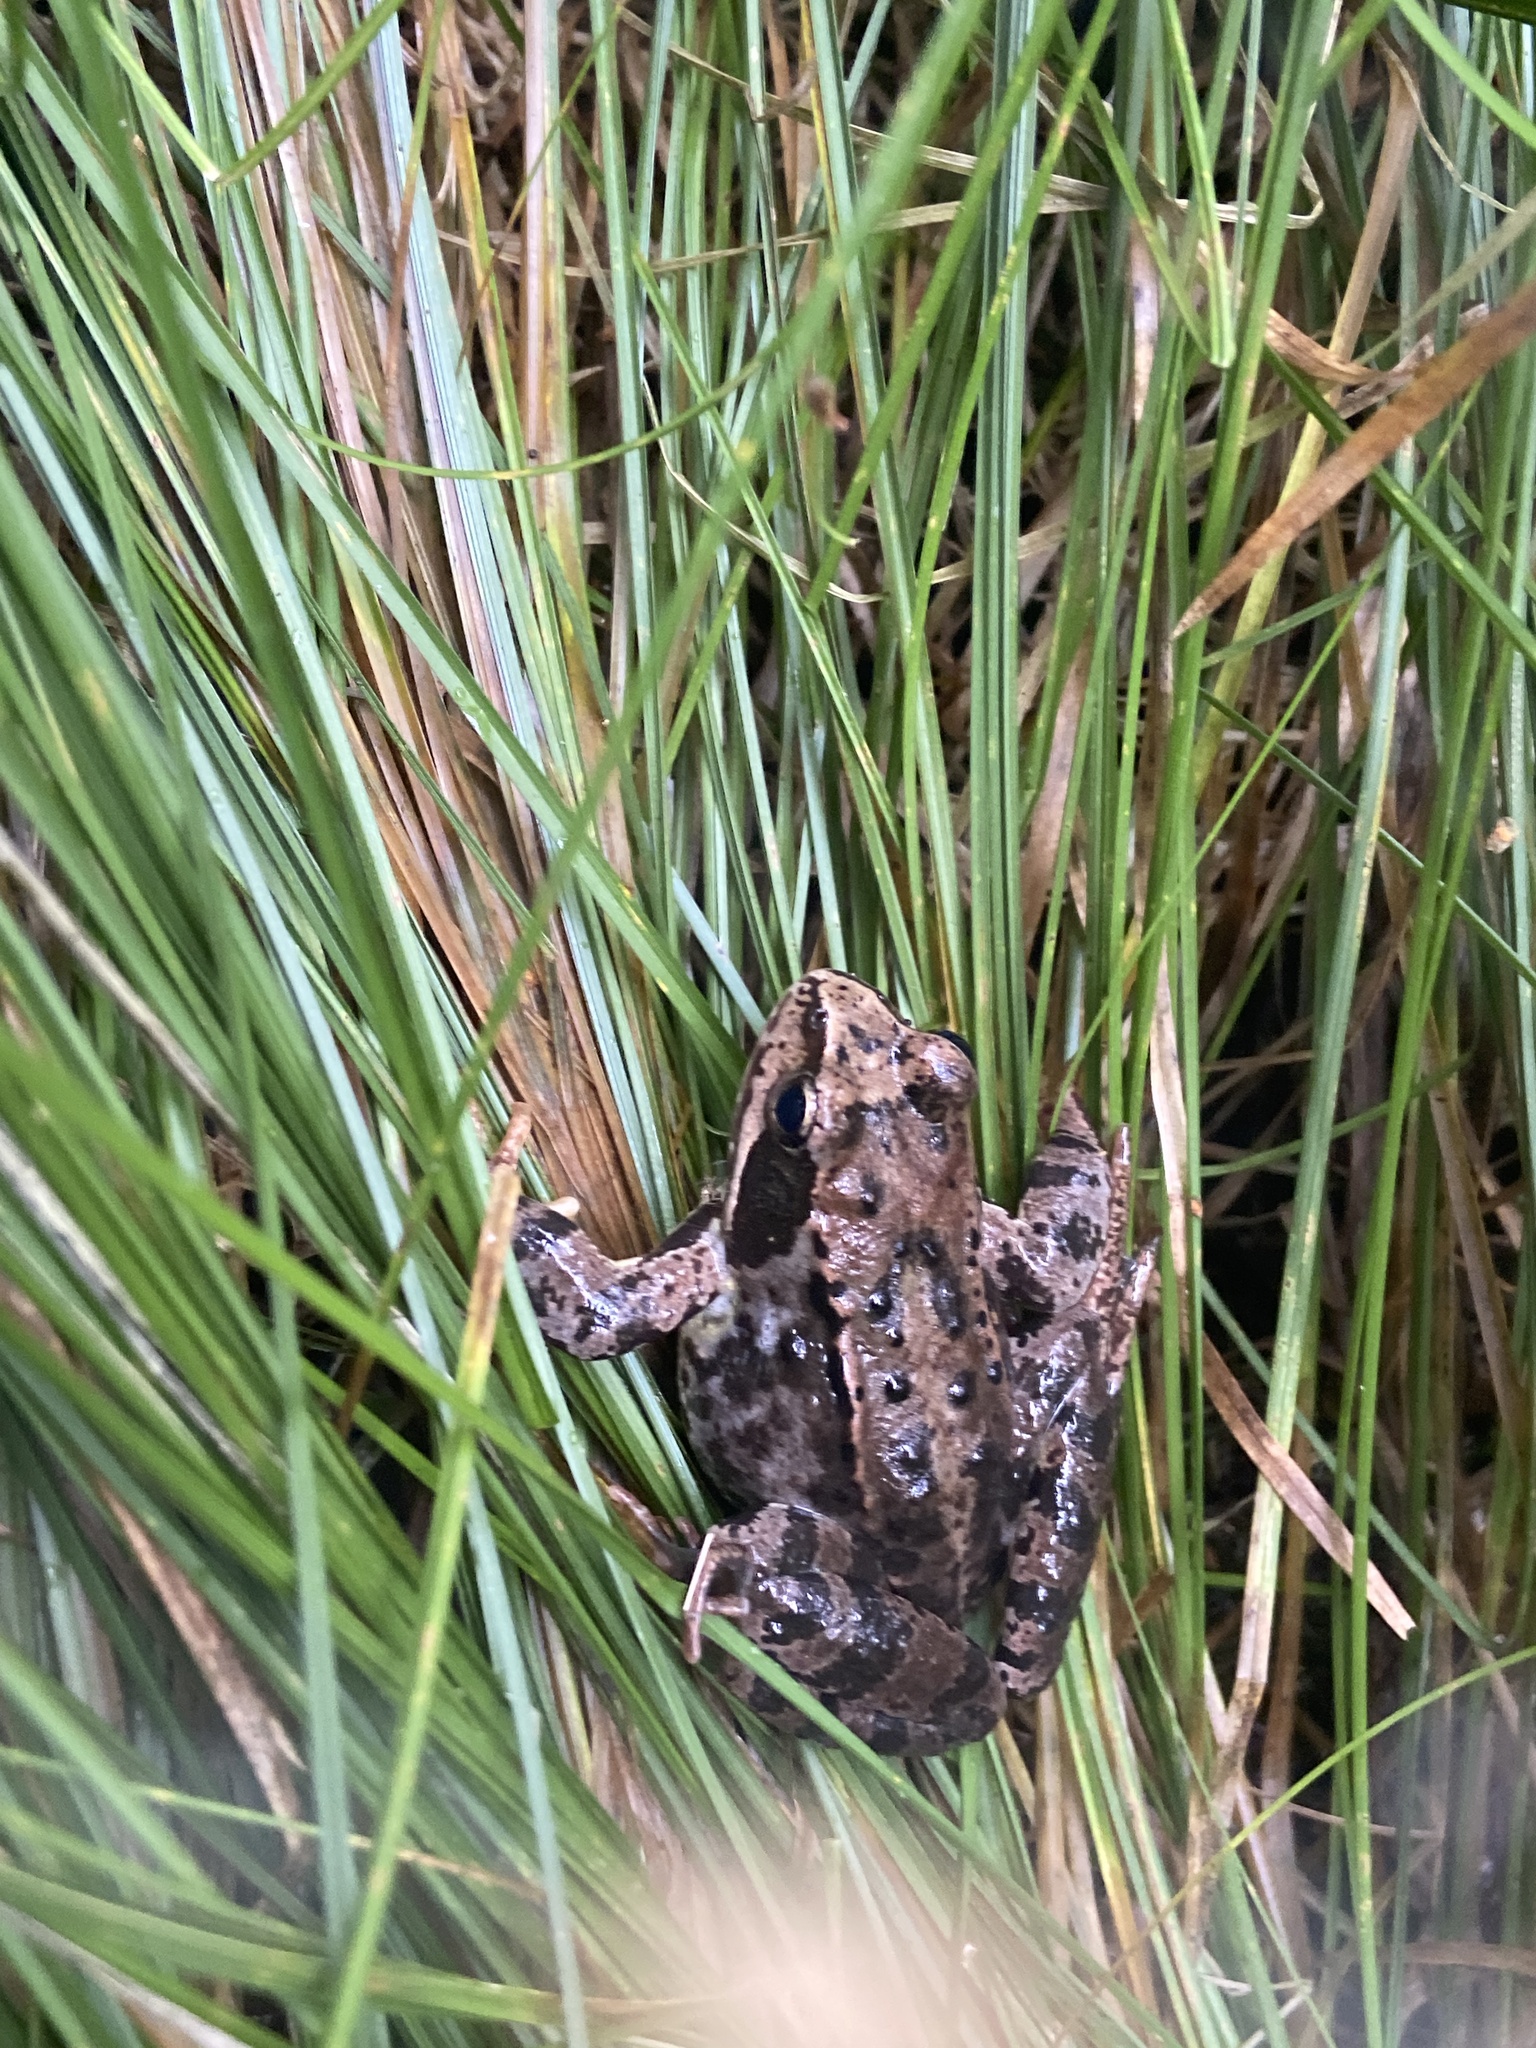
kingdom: Animalia
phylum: Chordata
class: Amphibia
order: Anura
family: Ranidae
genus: Rana
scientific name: Rana temporaria
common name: Common frog
